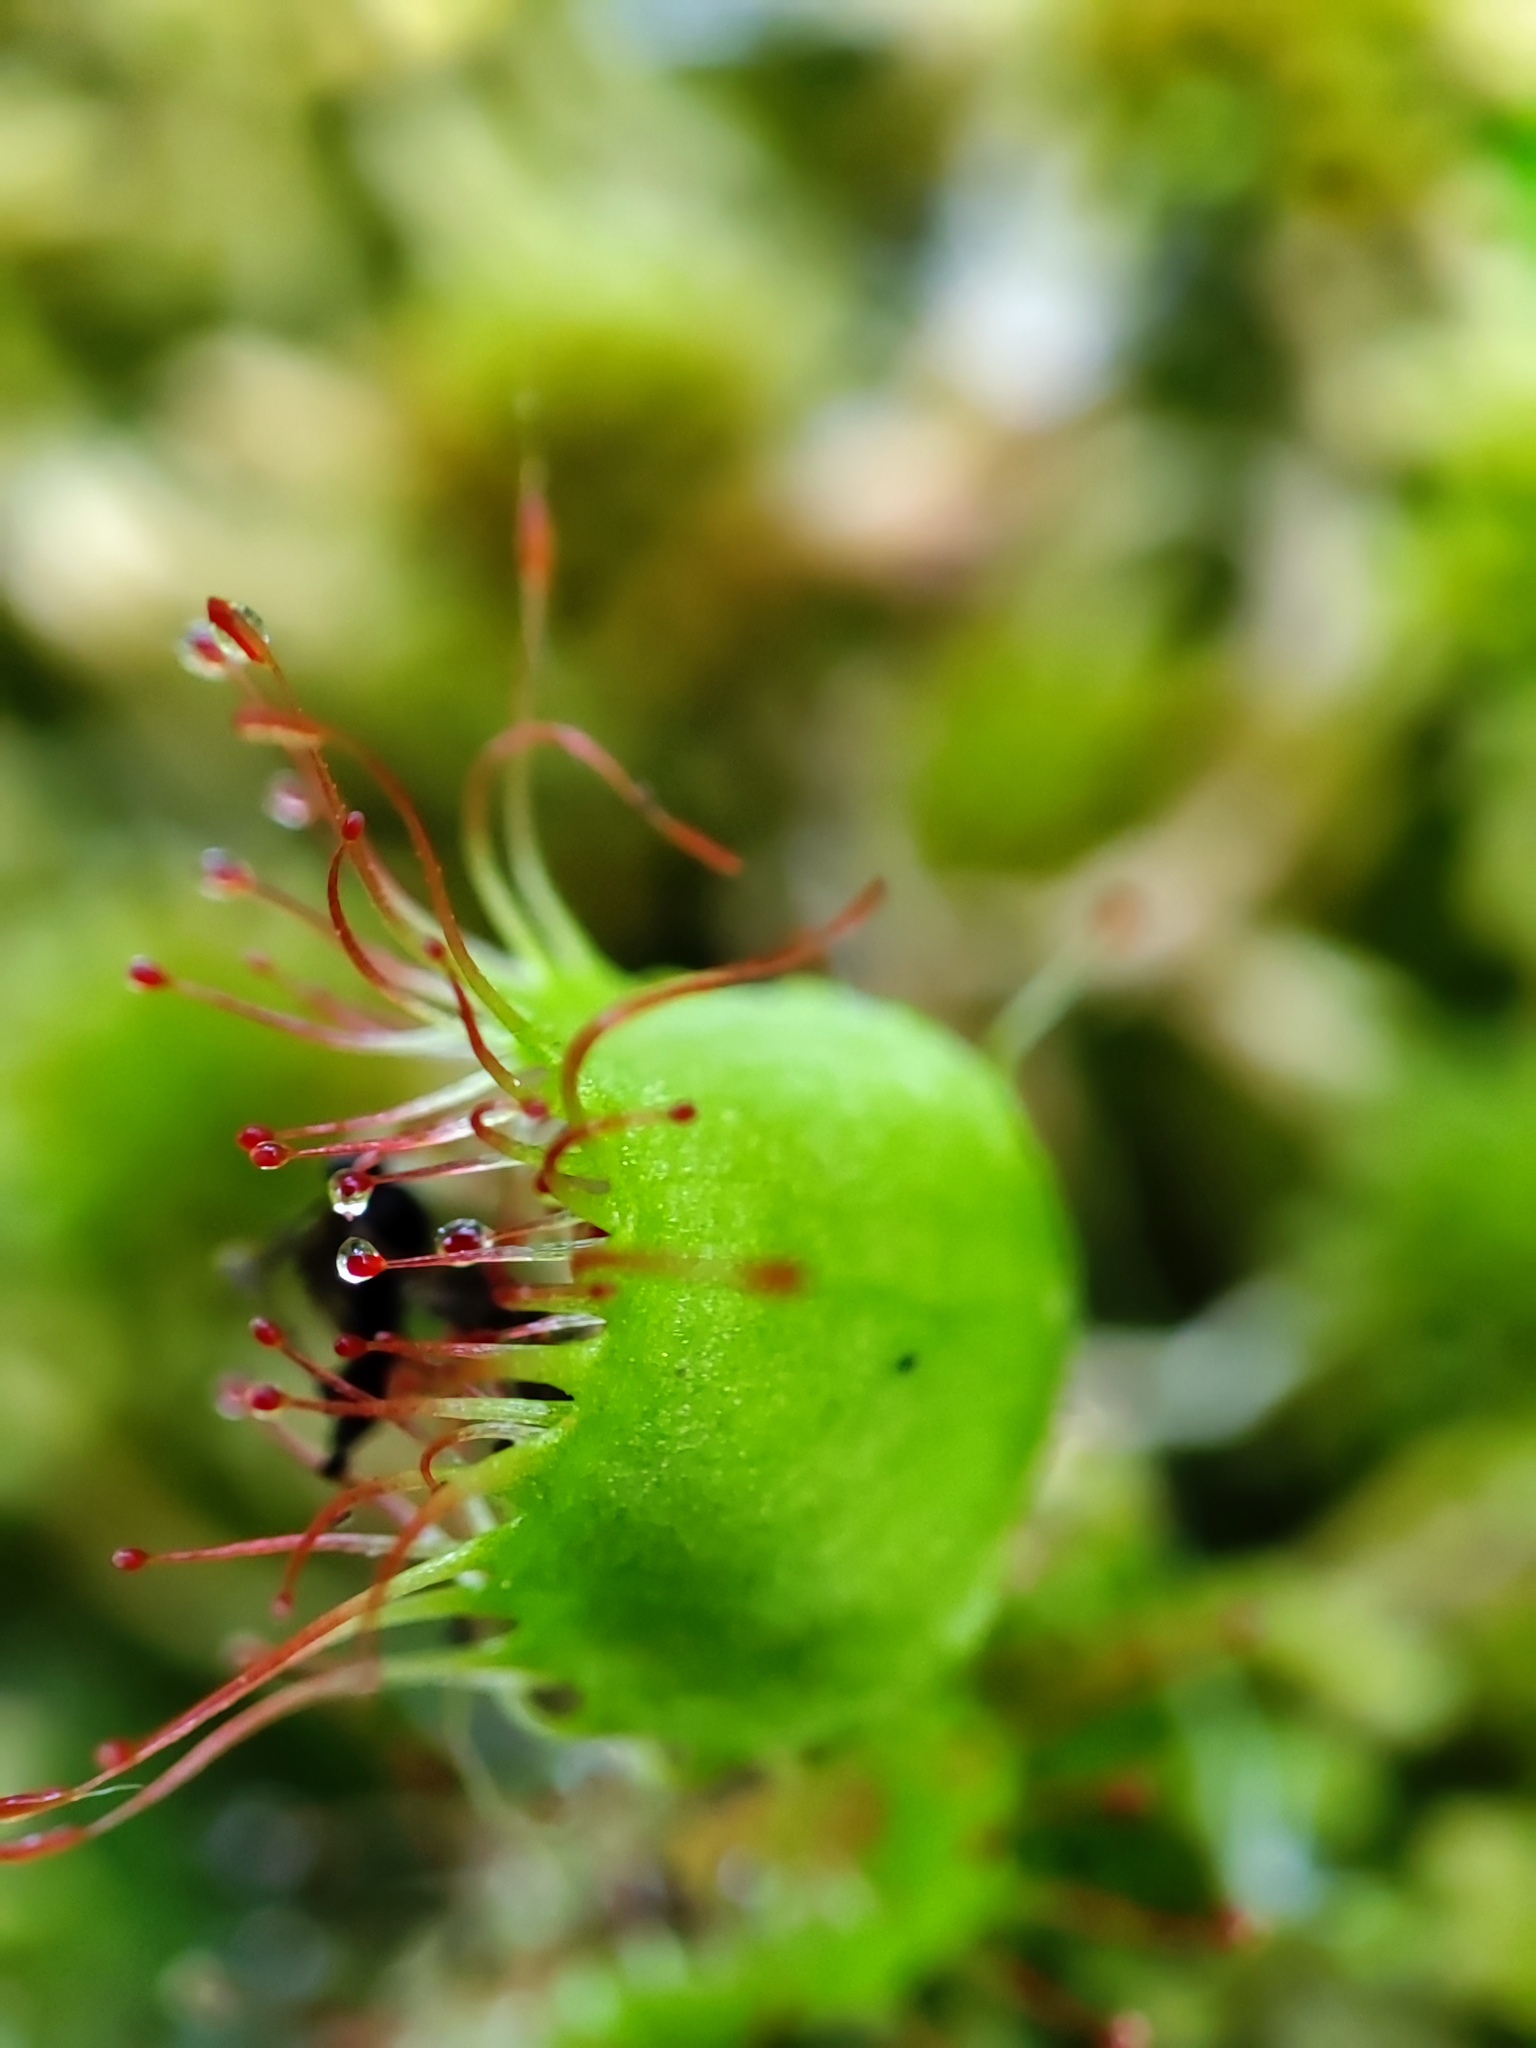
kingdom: Plantae
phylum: Tracheophyta
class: Magnoliopsida
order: Caryophyllales
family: Droseraceae
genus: Drosera
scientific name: Drosera rotundifolia
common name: Round-leaved sundew
